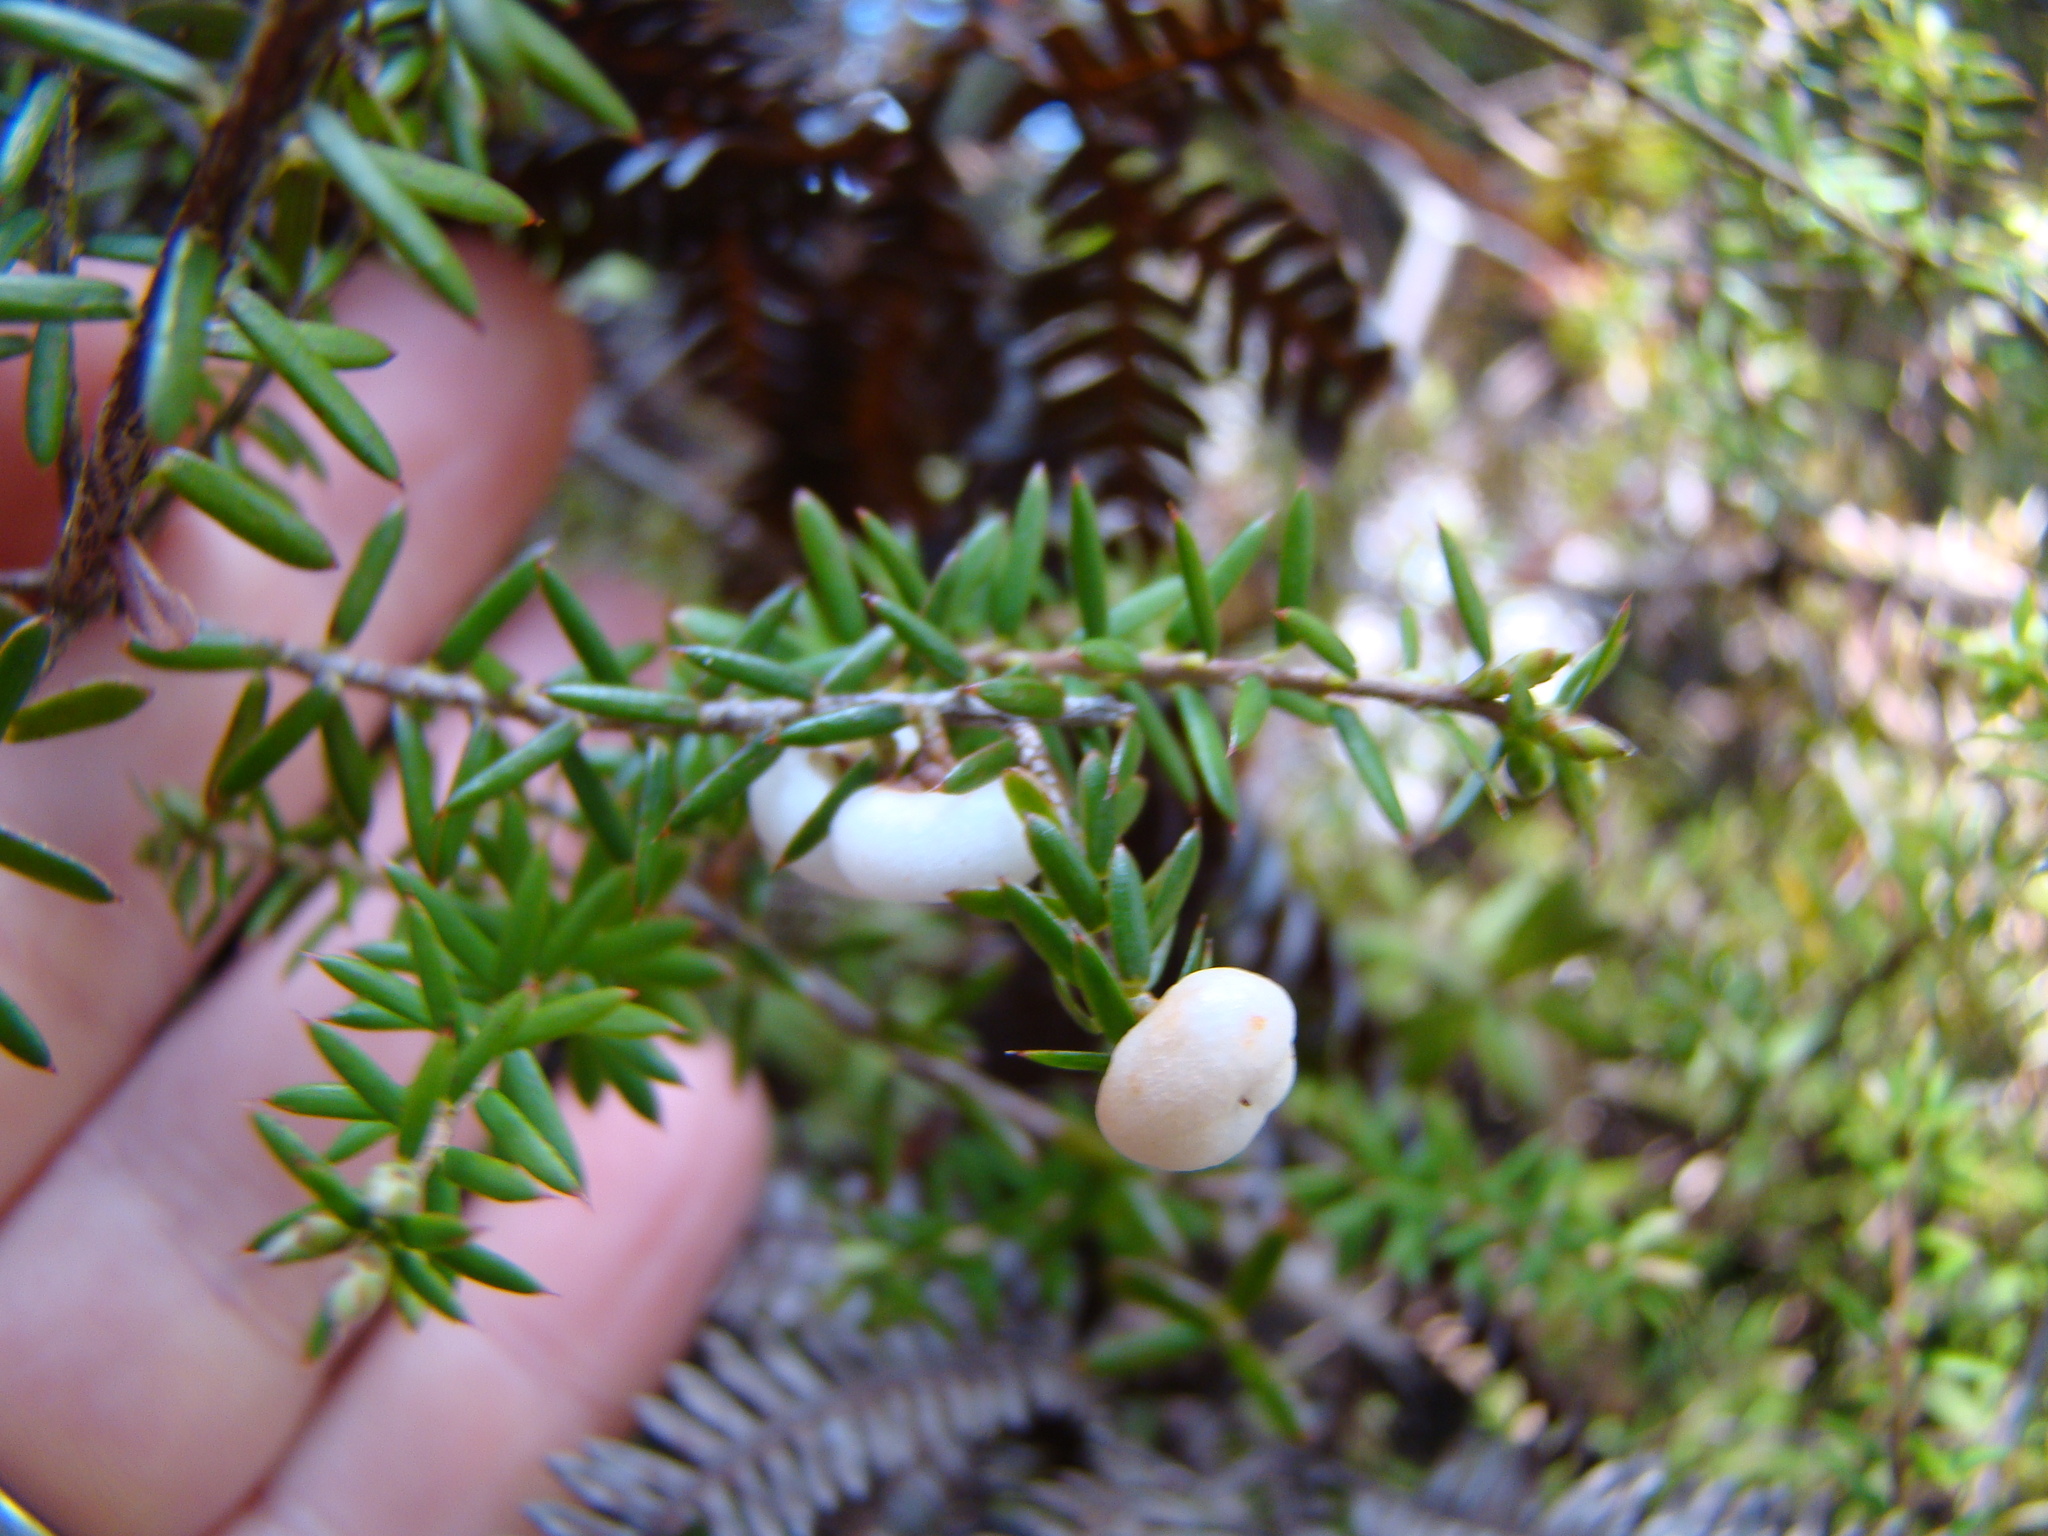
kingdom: Plantae
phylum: Tracheophyta
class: Magnoliopsida
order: Ericales
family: Ericaceae
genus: Leptecophylla
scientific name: Leptecophylla juniperina
